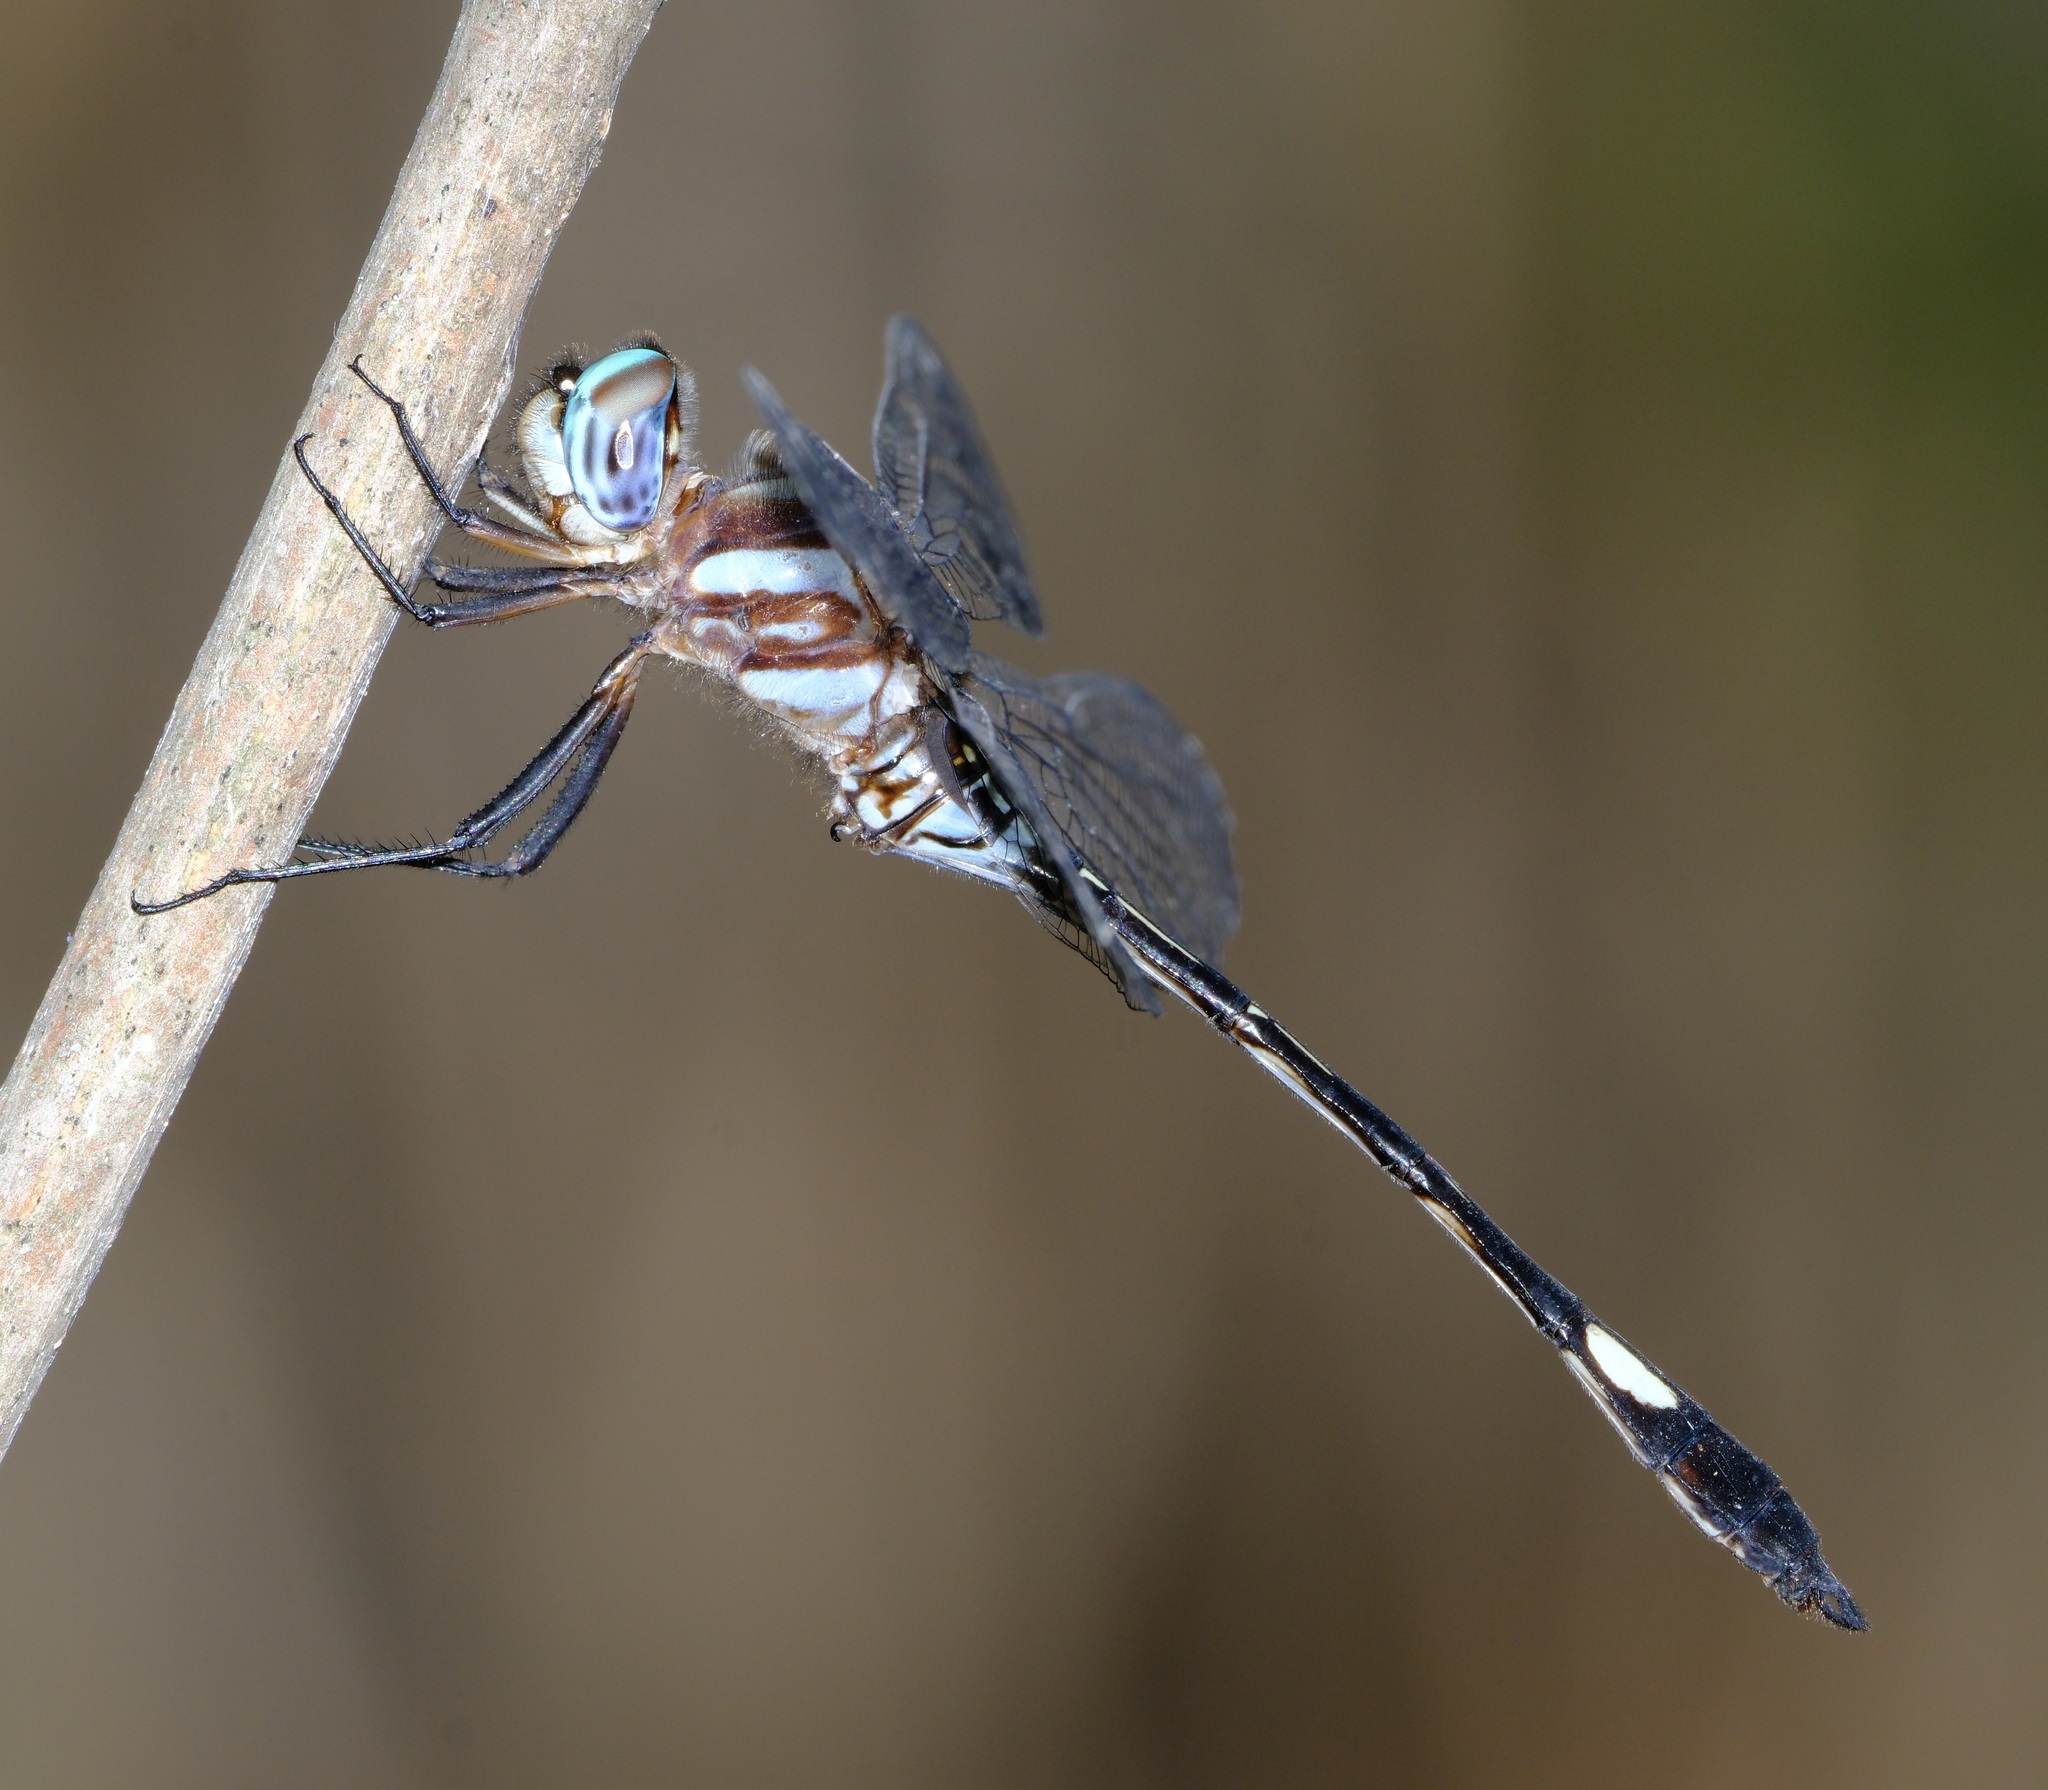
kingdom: Animalia
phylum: Arthropoda
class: Insecta
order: Odonata
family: Libellulidae
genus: Brechmorhoga
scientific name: Brechmorhoga mendax
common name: Pale-faced clubskimmer
